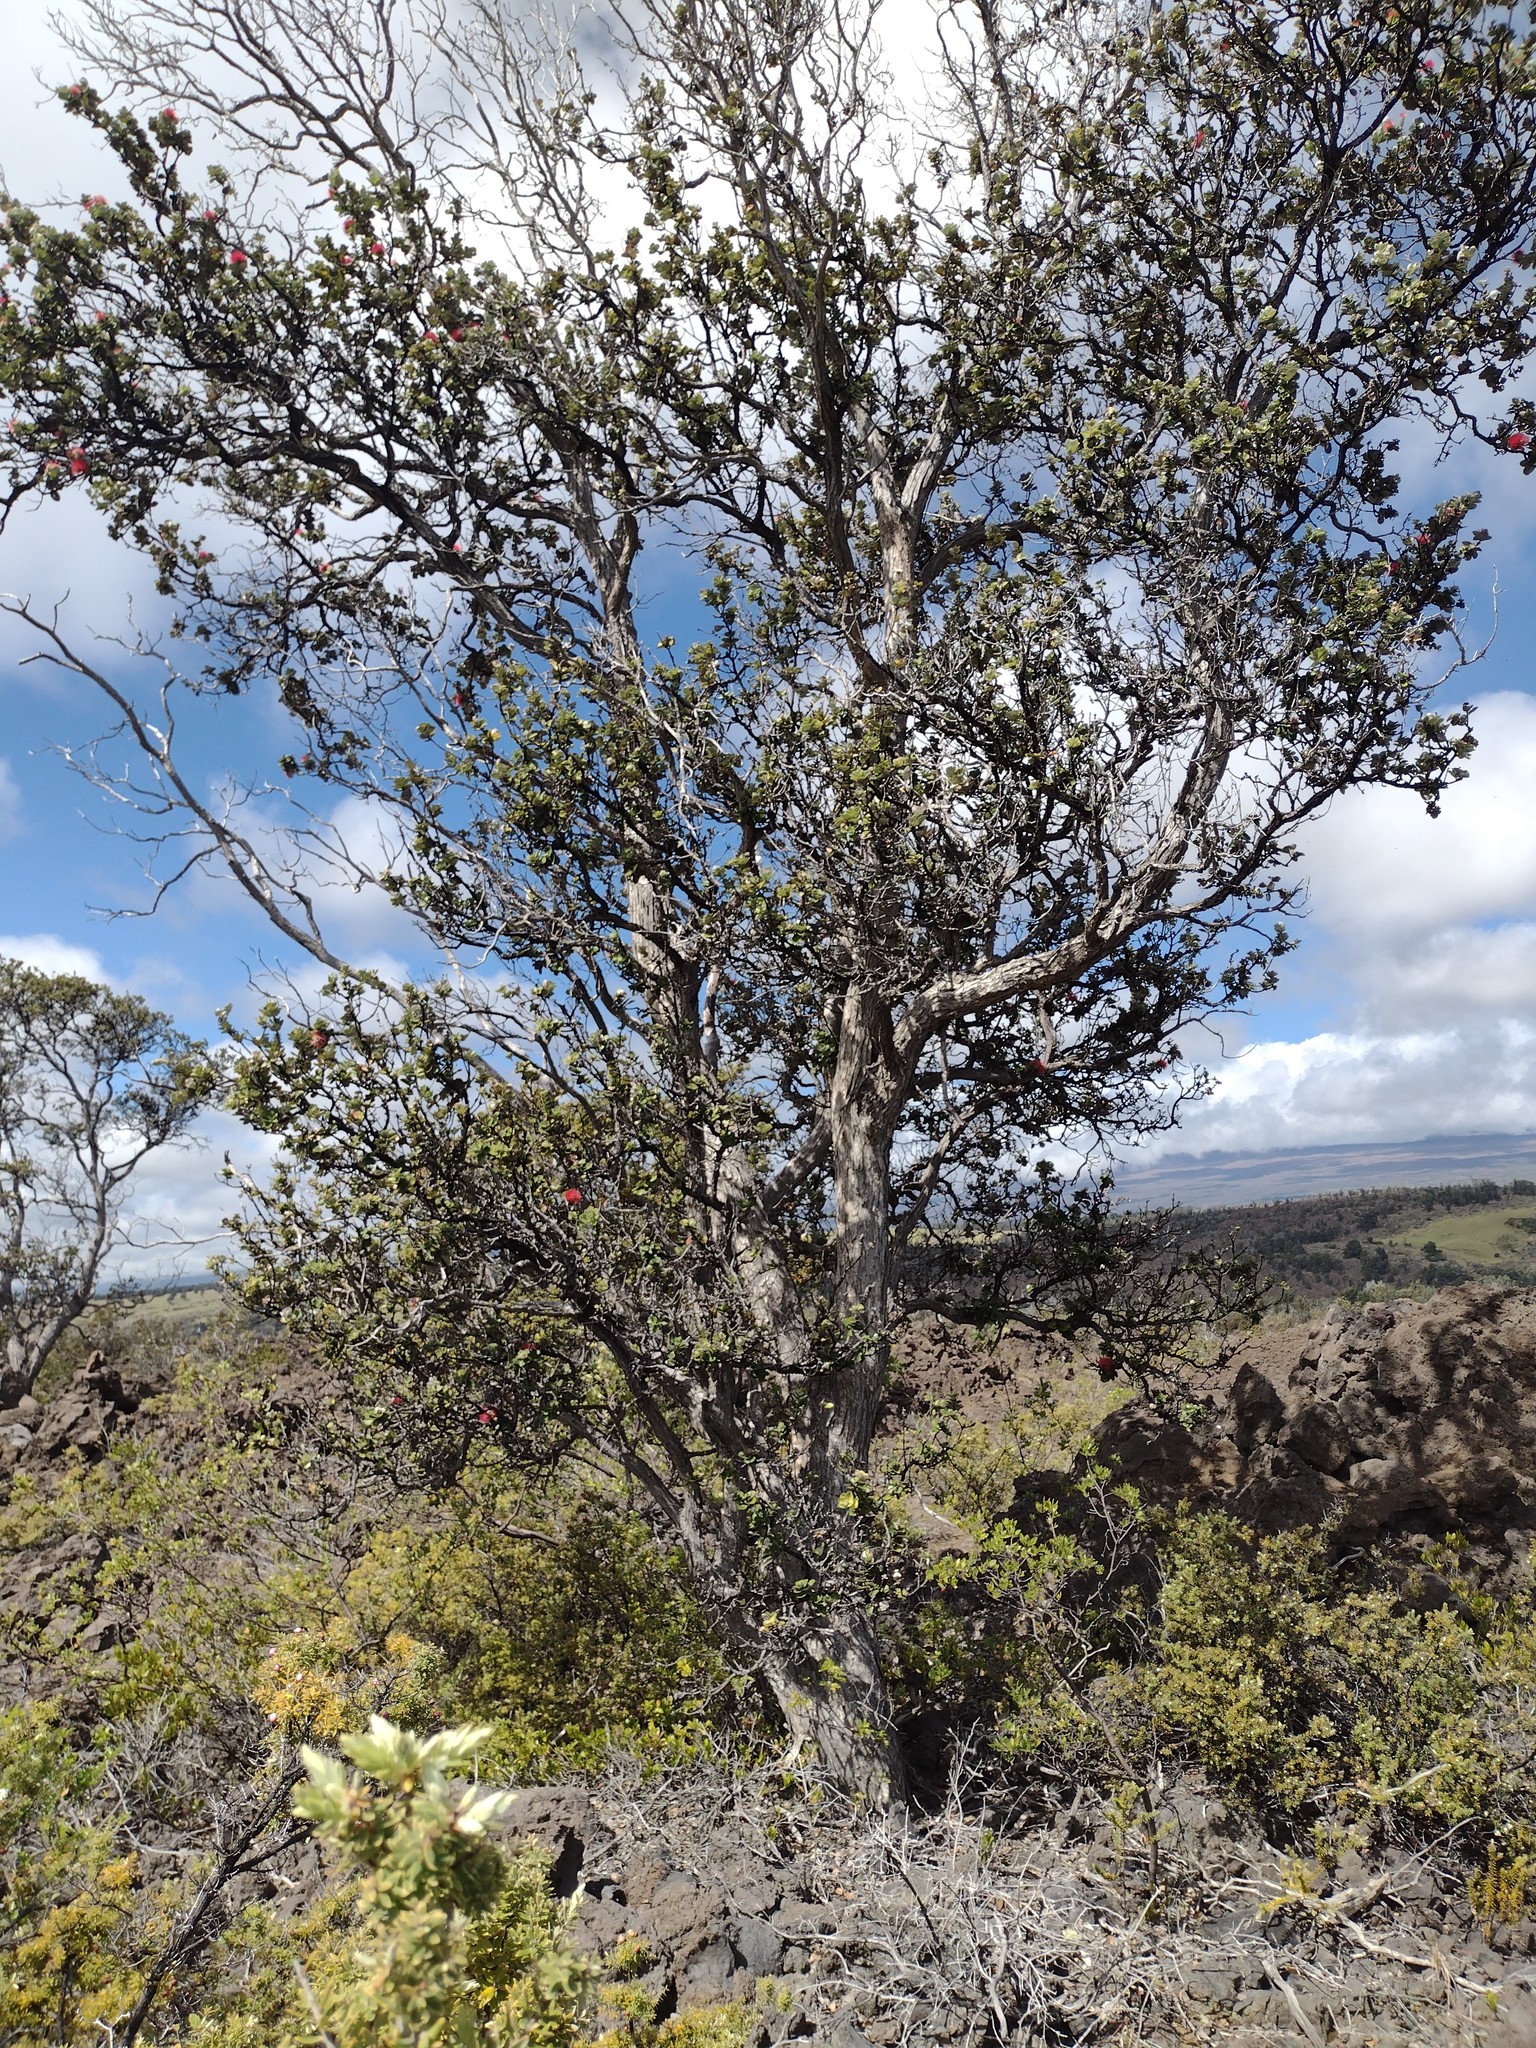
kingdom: Plantae
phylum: Tracheophyta
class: Magnoliopsida
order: Myrtales
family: Myrtaceae
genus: Metrosideros
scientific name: Metrosideros polymorpha
